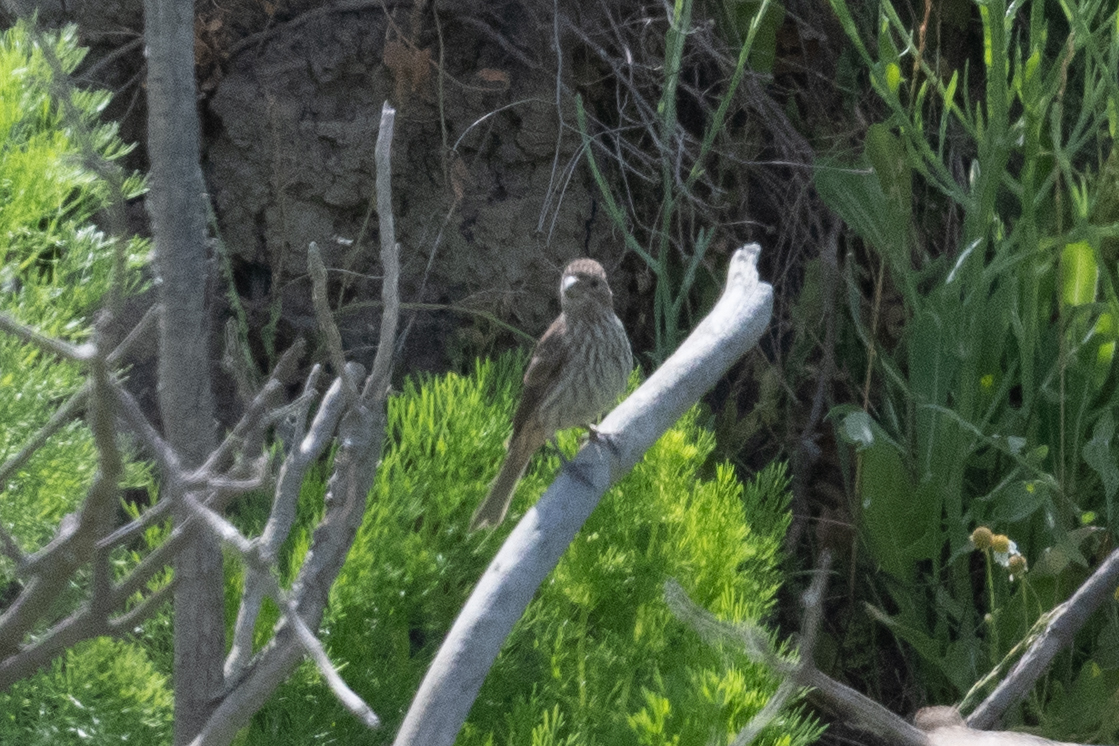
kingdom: Animalia
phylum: Chordata
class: Aves
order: Passeriformes
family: Fringillidae
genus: Haemorhous
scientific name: Haemorhous mexicanus
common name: House finch
